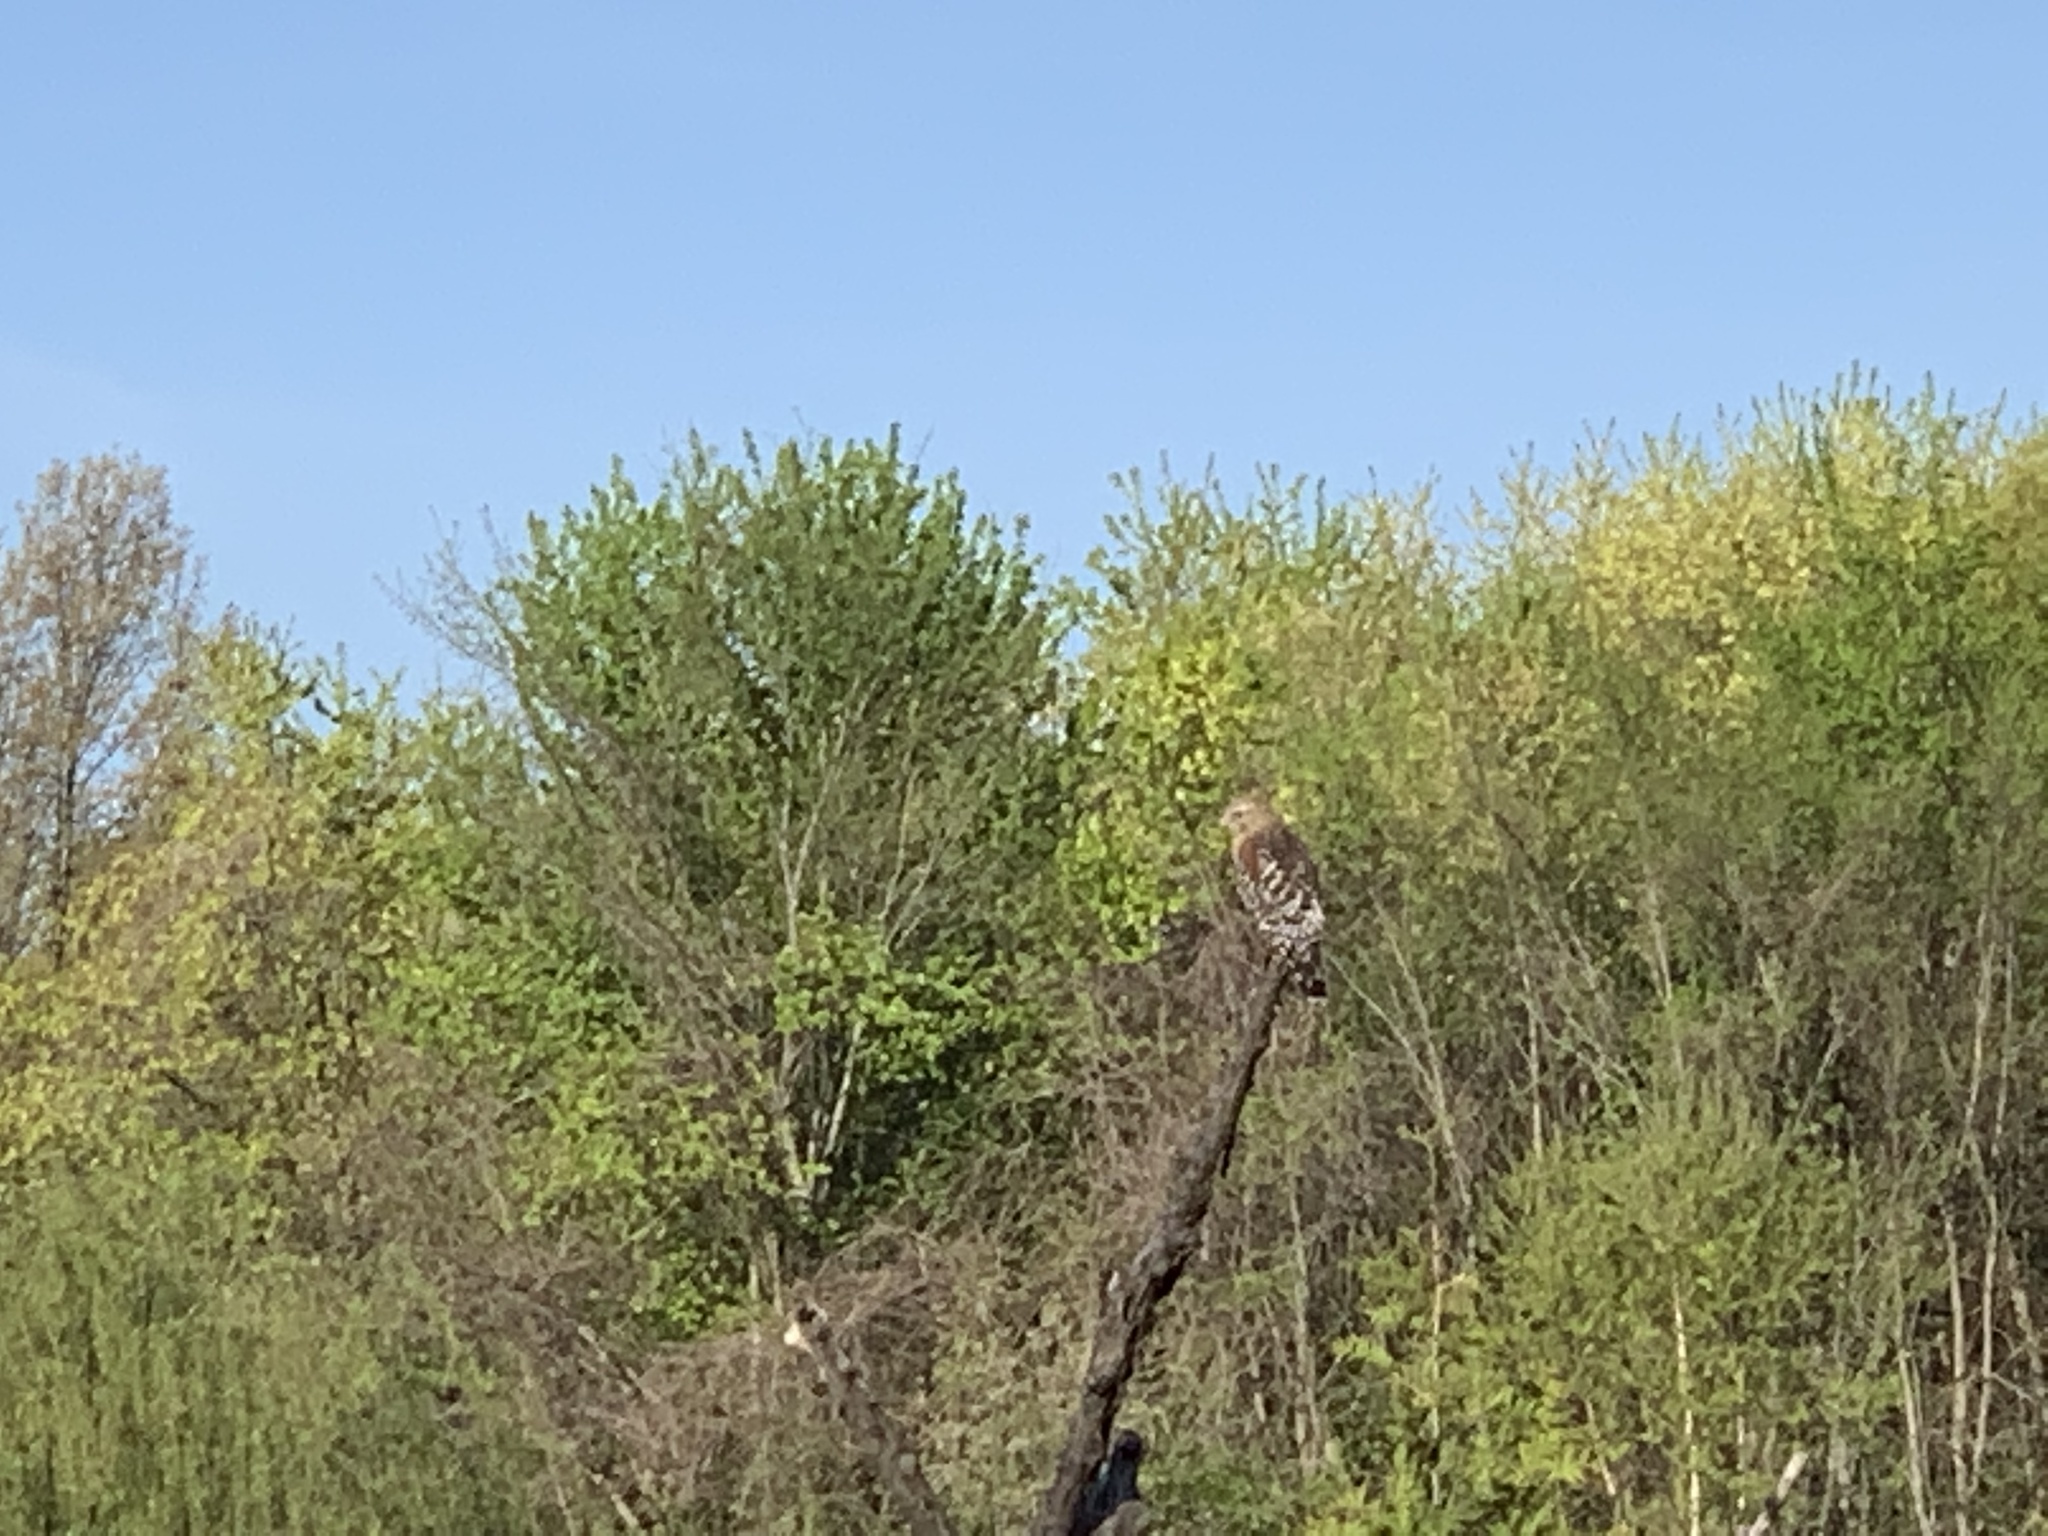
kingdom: Animalia
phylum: Chordata
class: Aves
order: Accipitriformes
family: Accipitridae
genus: Buteo
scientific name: Buteo lineatus
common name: Red-shouldered hawk
